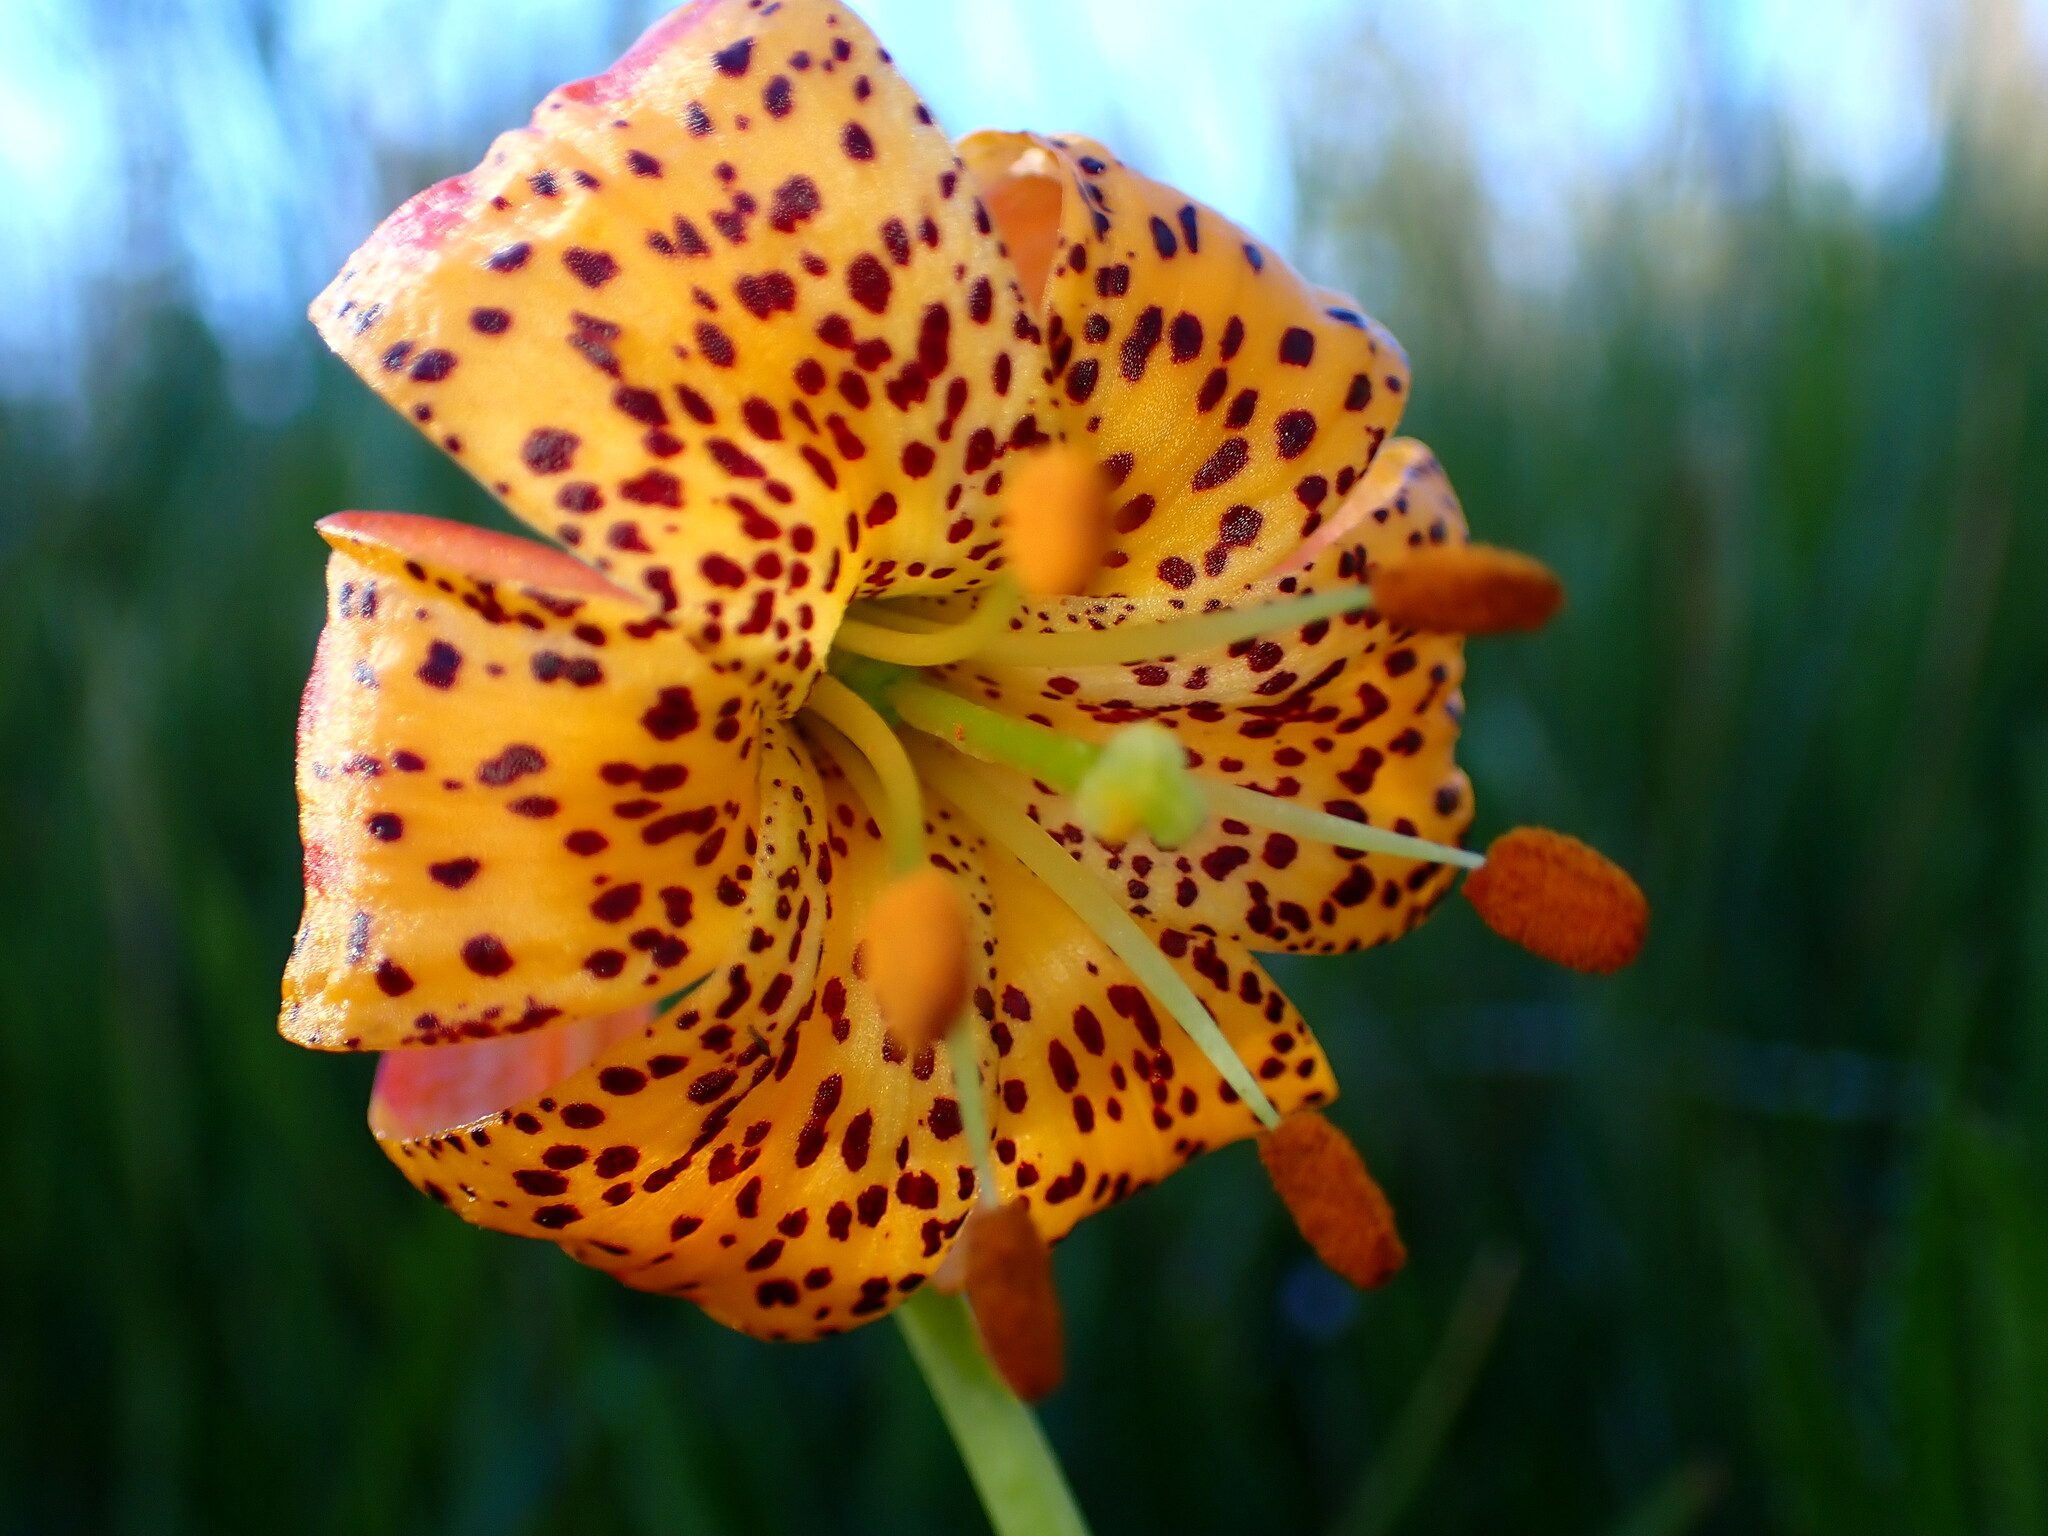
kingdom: Plantae
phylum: Tracheophyta
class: Liliopsida
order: Liliales
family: Liliaceae
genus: Lilium
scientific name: Lilium pardalinum
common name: Panther lily
